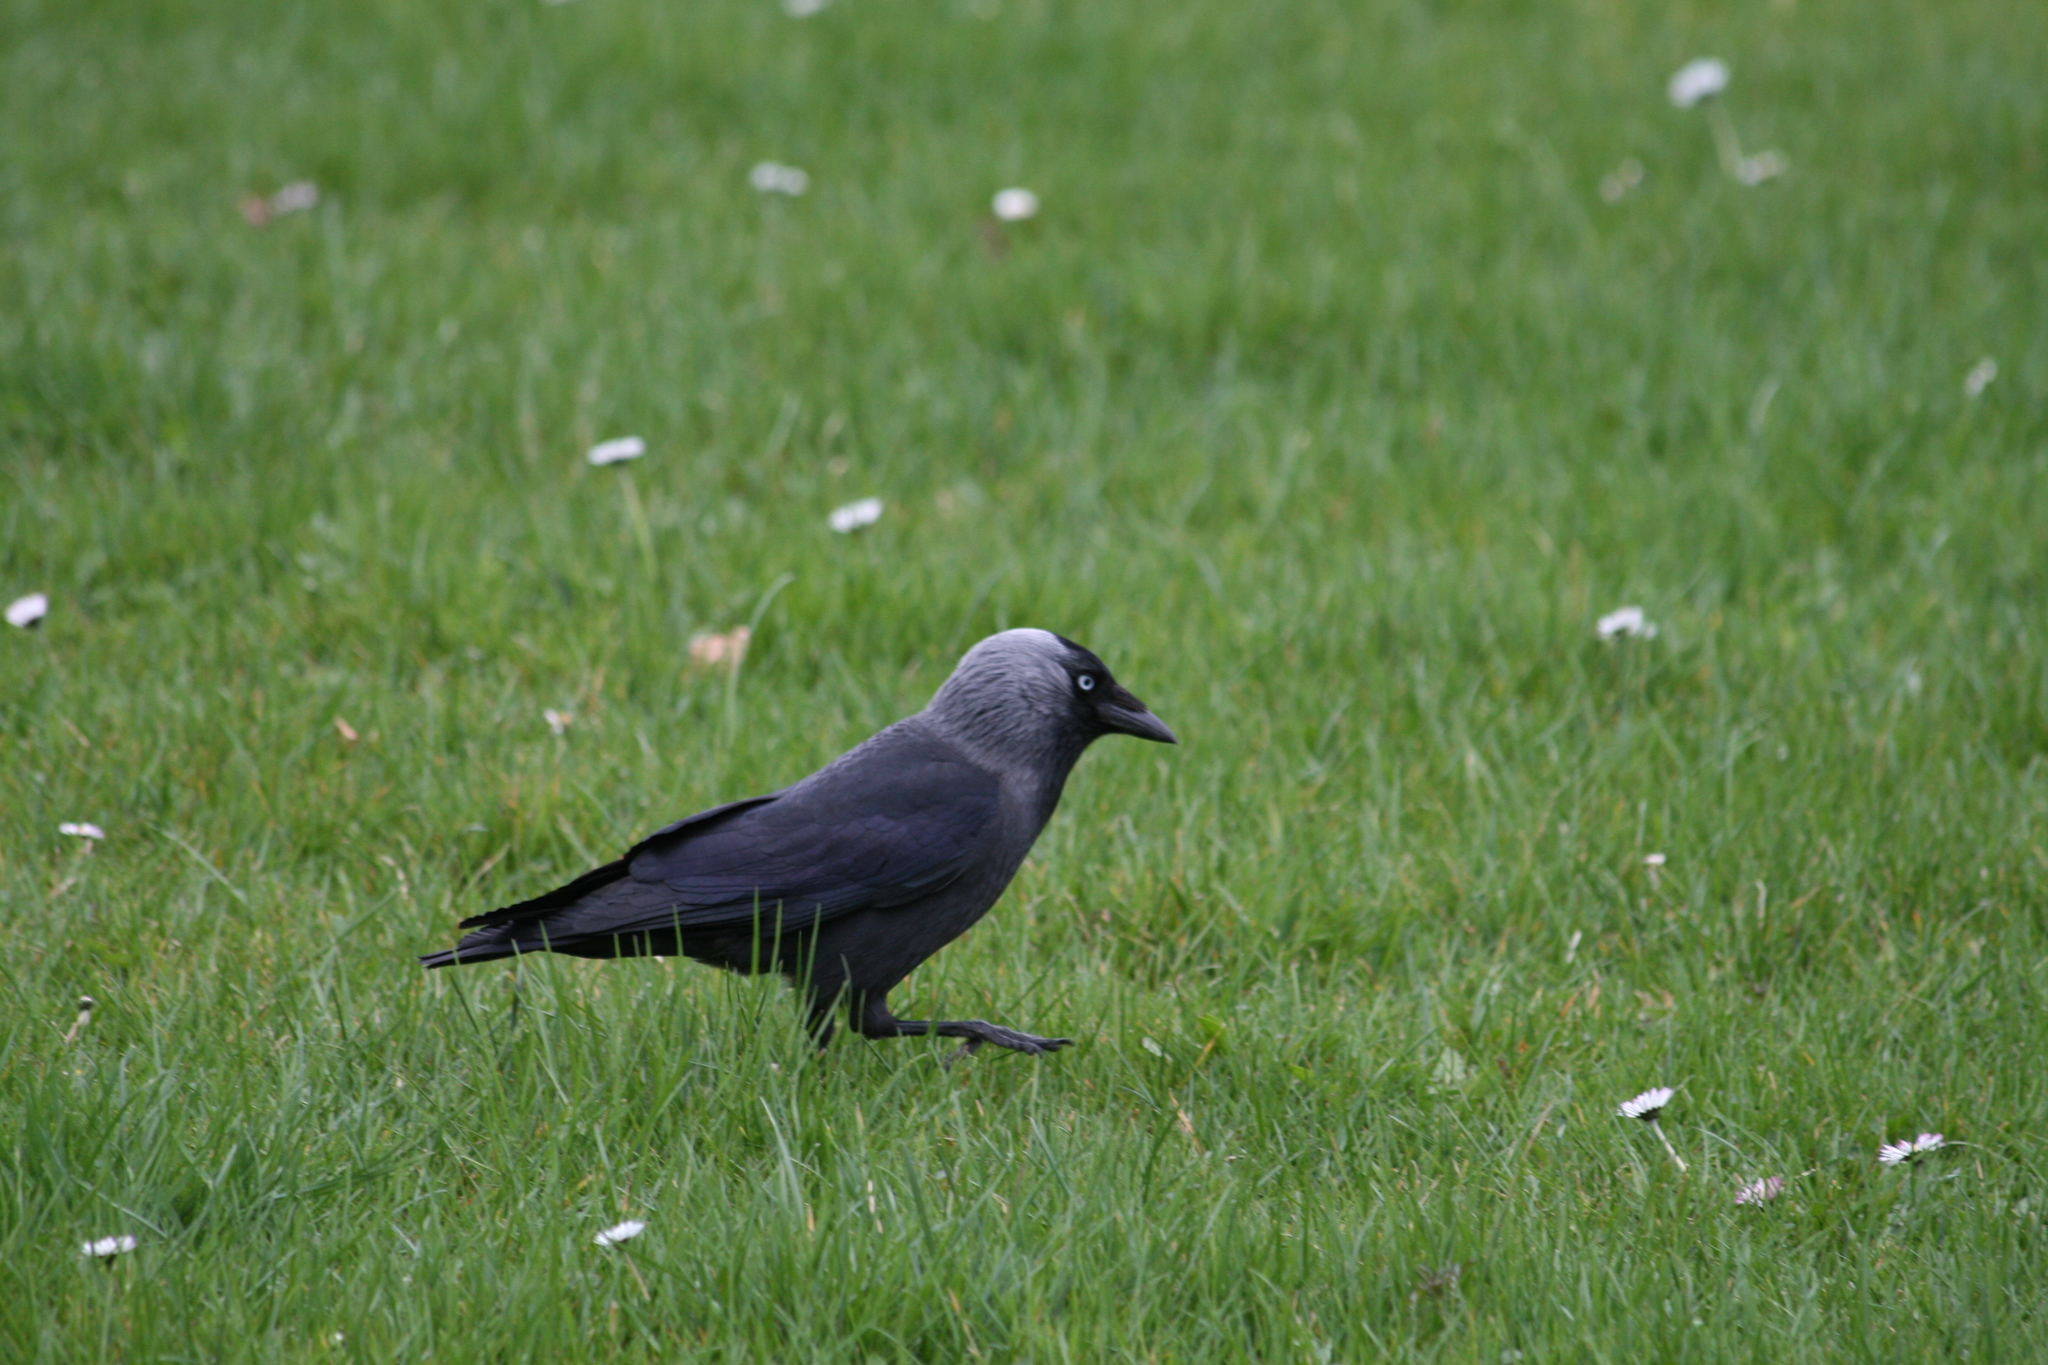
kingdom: Animalia
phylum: Chordata
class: Aves
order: Passeriformes
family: Corvidae
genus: Coloeus
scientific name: Coloeus monedula
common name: Western jackdaw
